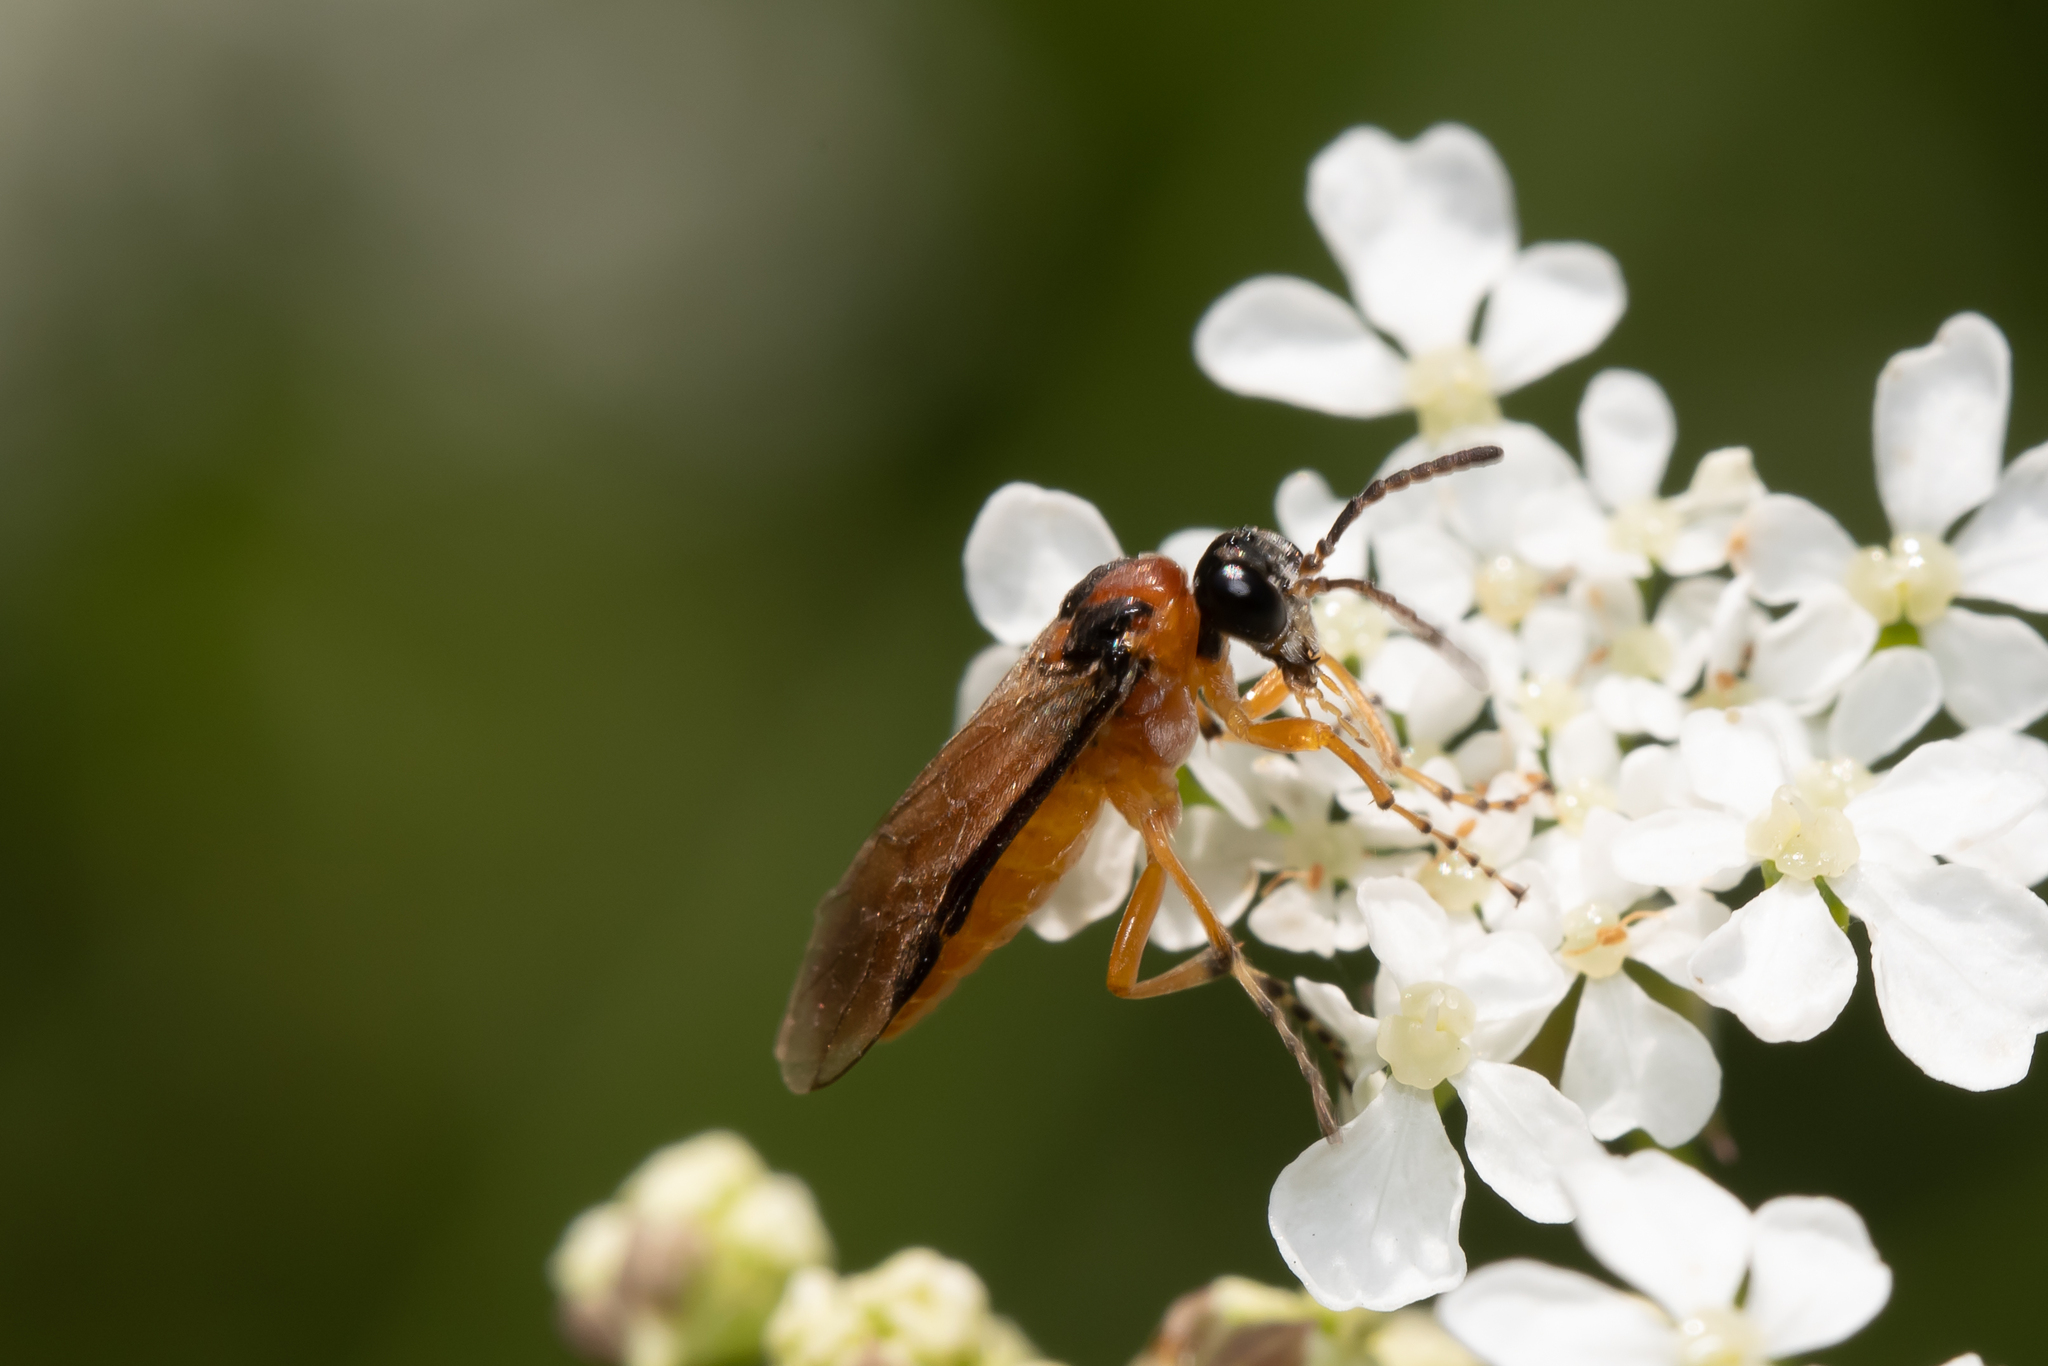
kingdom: Animalia
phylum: Arthropoda
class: Insecta
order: Hymenoptera
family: Tenthredinidae
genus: Athalia
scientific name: Athalia rosae
